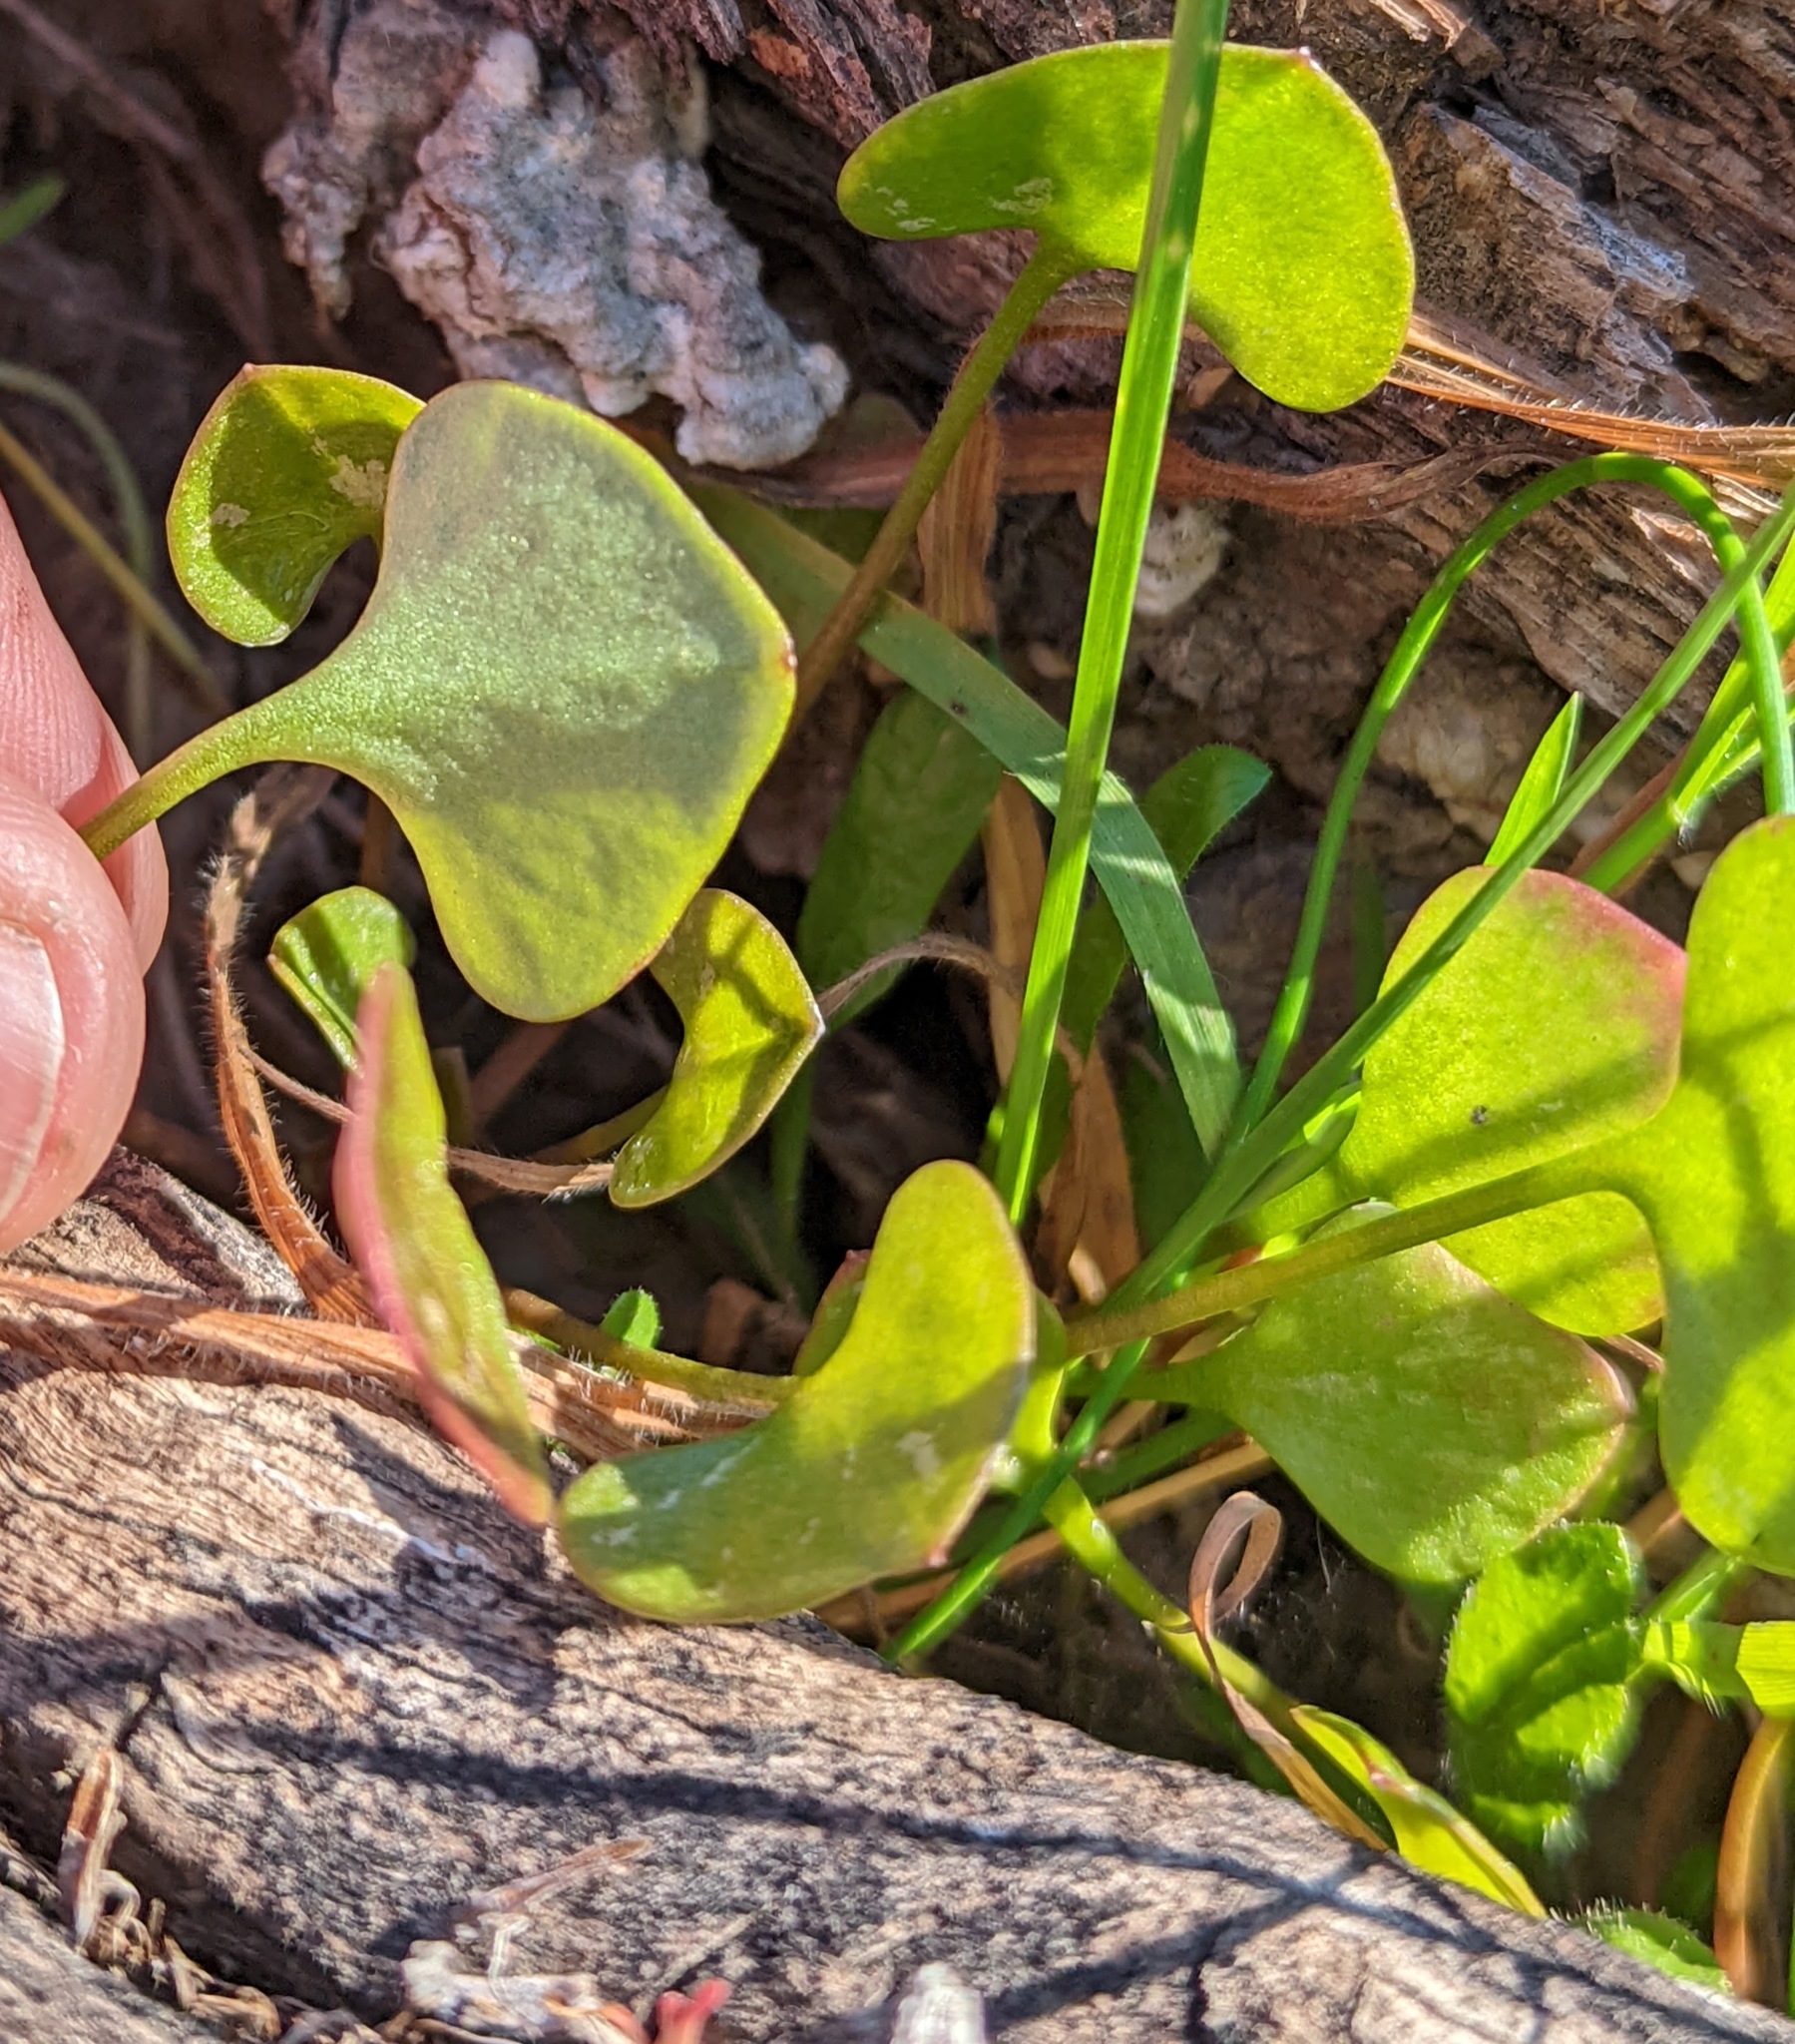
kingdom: Plantae
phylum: Tracheophyta
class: Magnoliopsida
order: Caryophyllales
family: Montiaceae
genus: Claytonia
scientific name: Claytonia perfoliata
